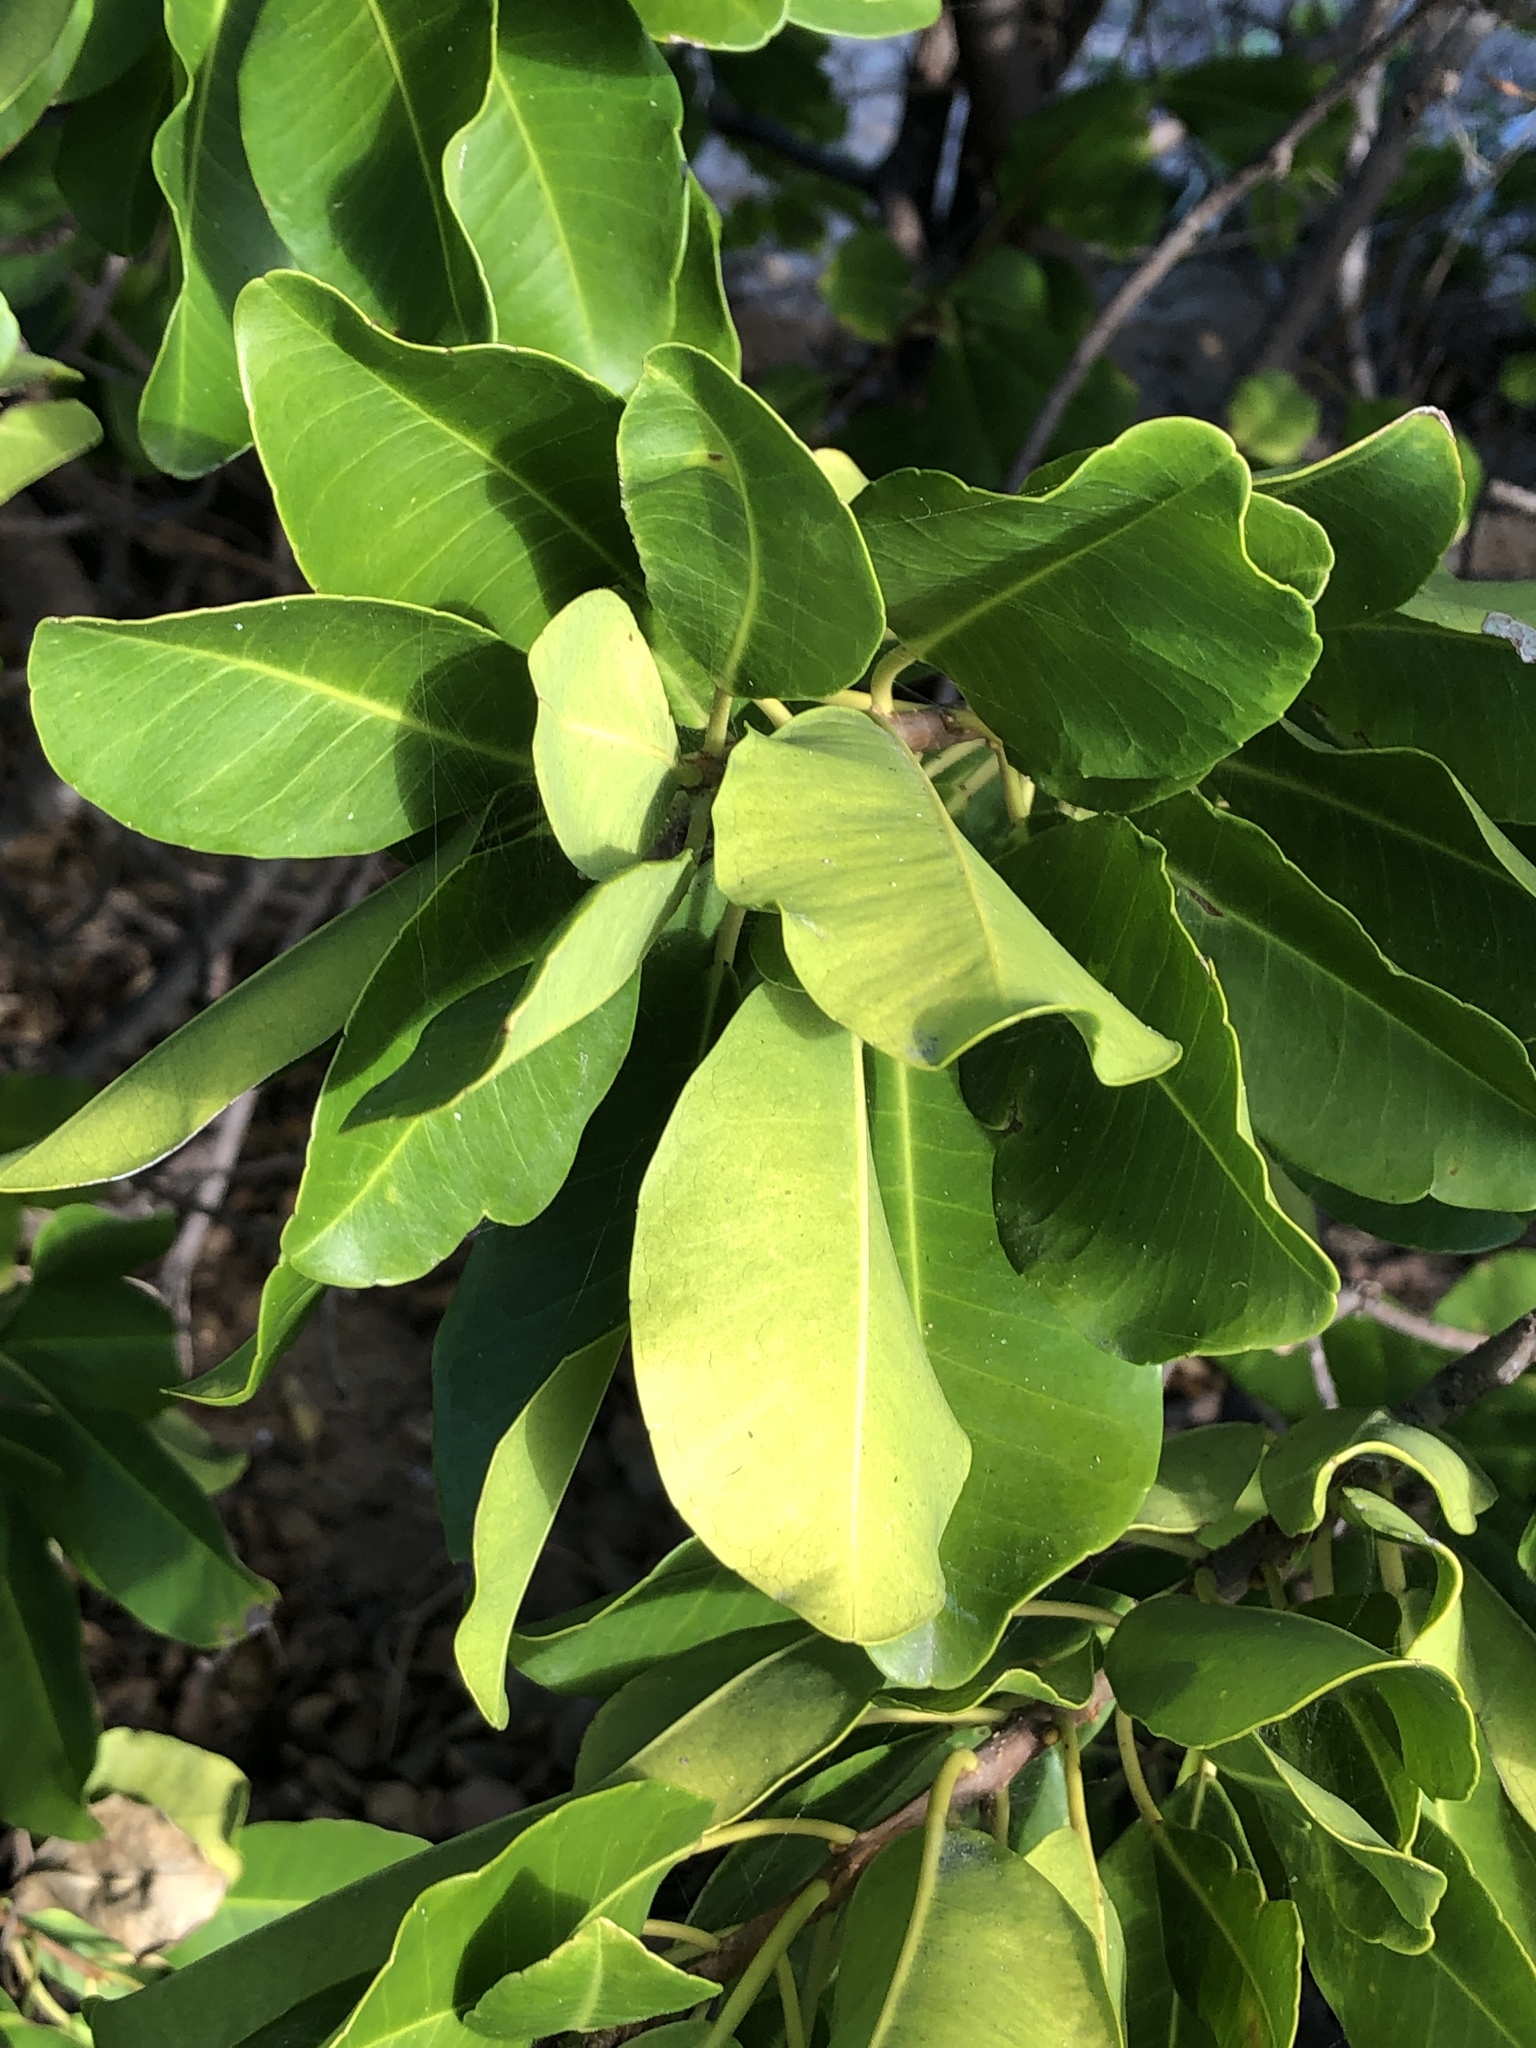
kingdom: Plantae
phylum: Tracheophyta
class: Magnoliopsida
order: Malpighiales
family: Euphorbiaceae
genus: Excoecaria
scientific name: Excoecaria agallocha
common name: River poisontree
